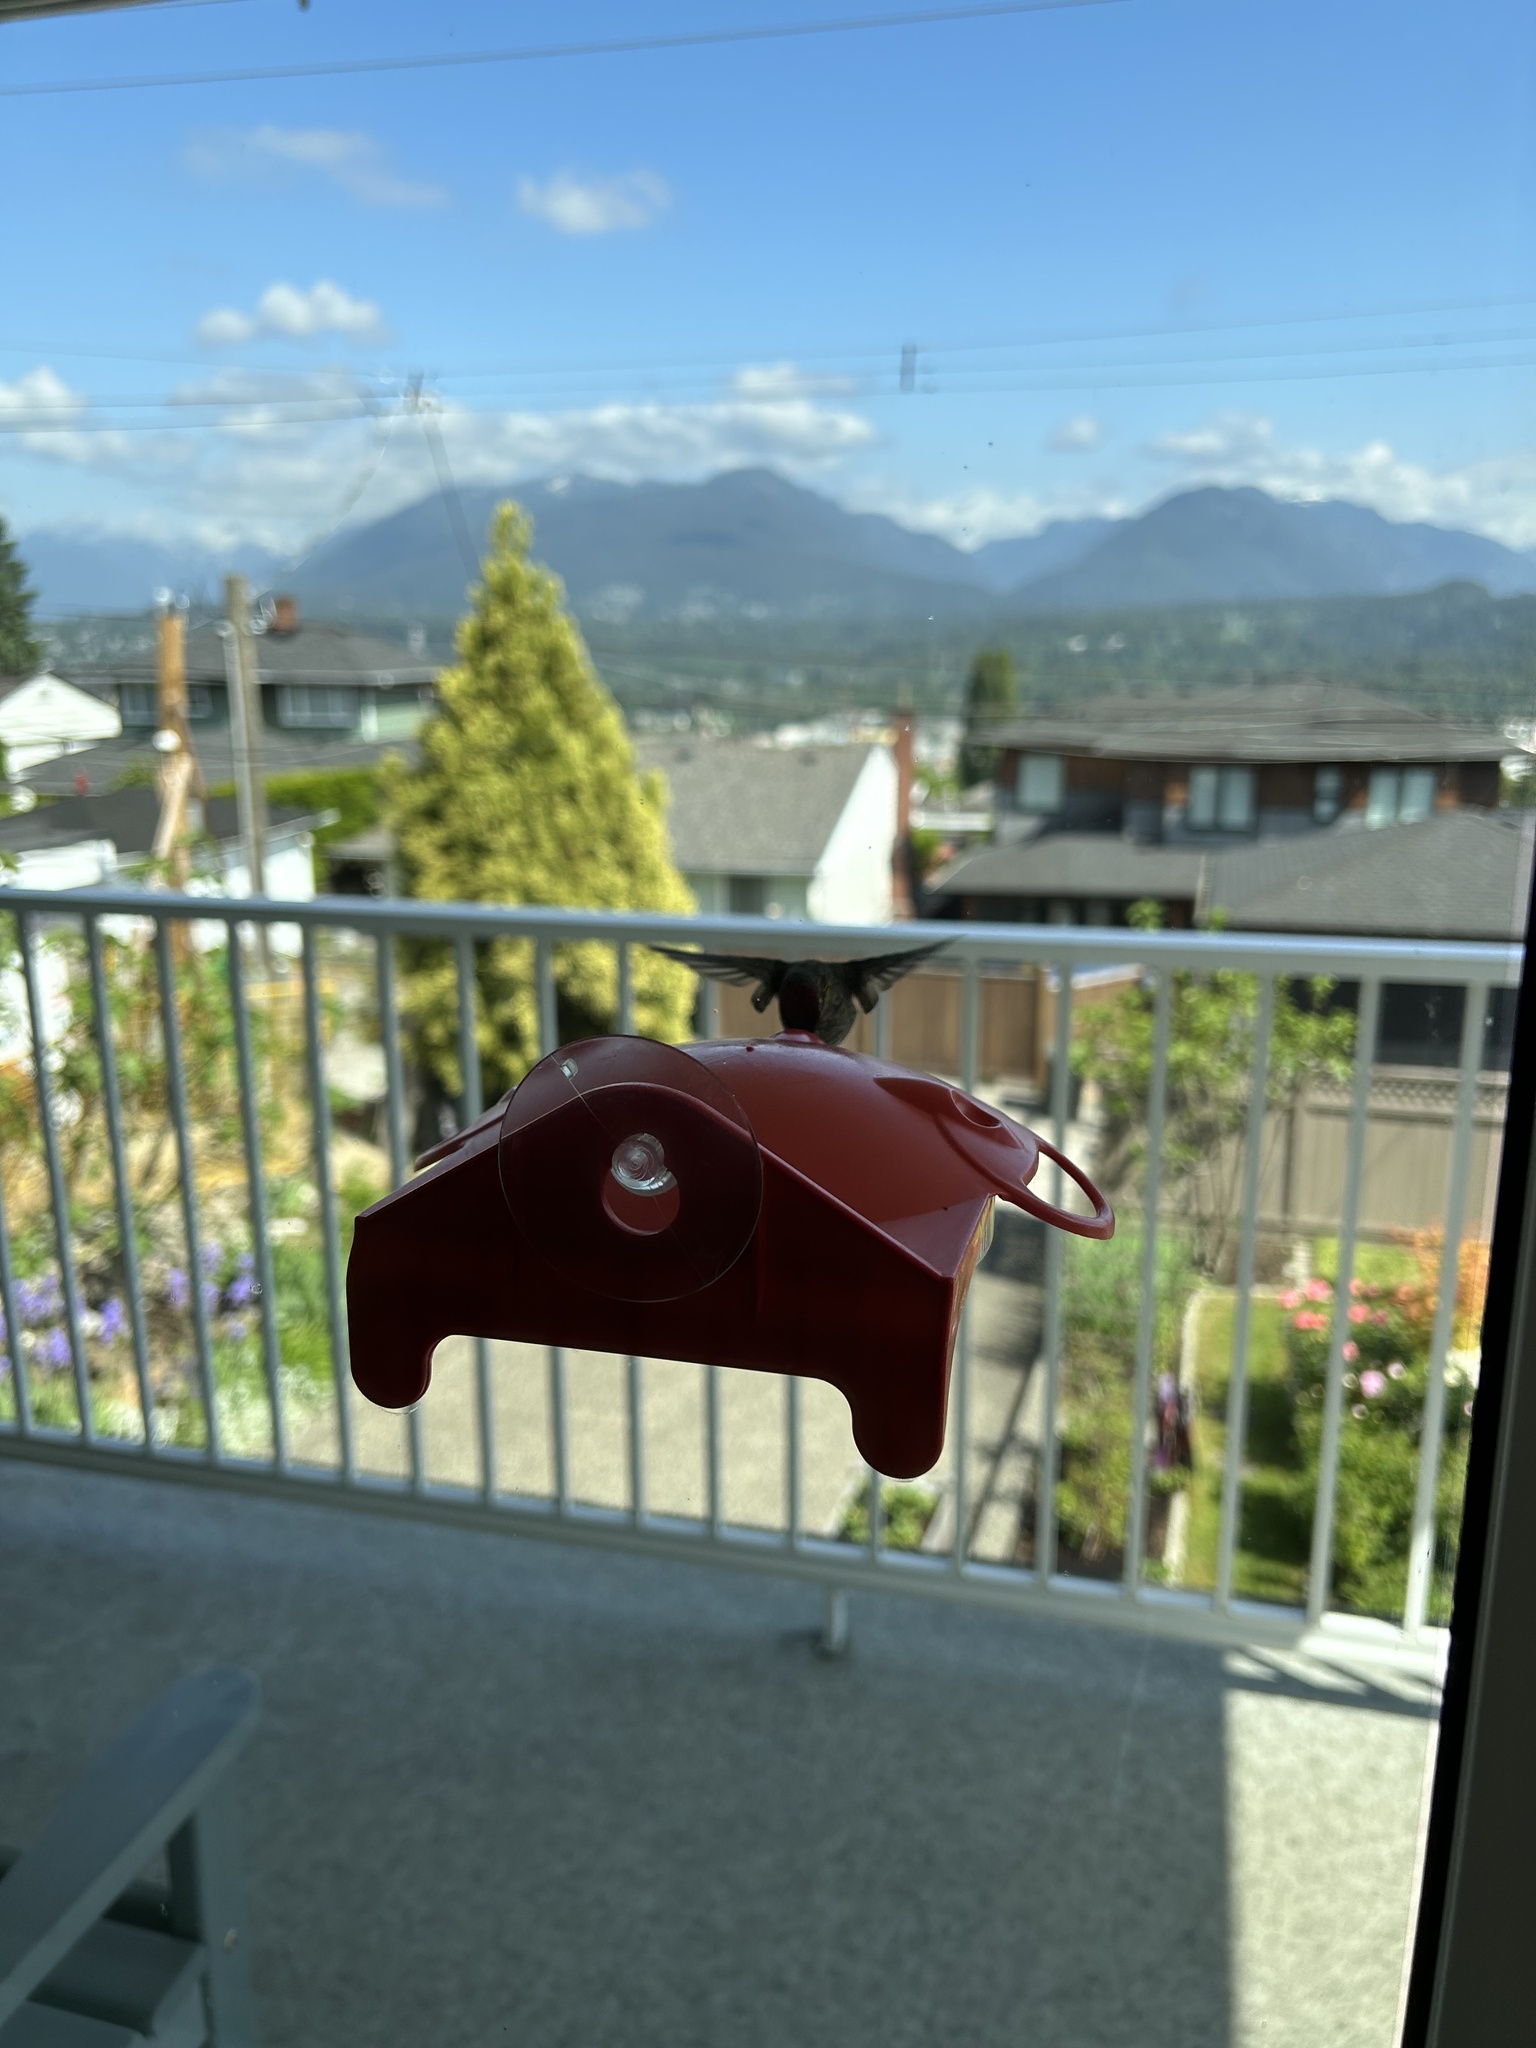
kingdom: Animalia
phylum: Chordata
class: Aves
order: Apodiformes
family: Trochilidae
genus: Calypte
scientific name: Calypte anna
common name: Anna's hummingbird
